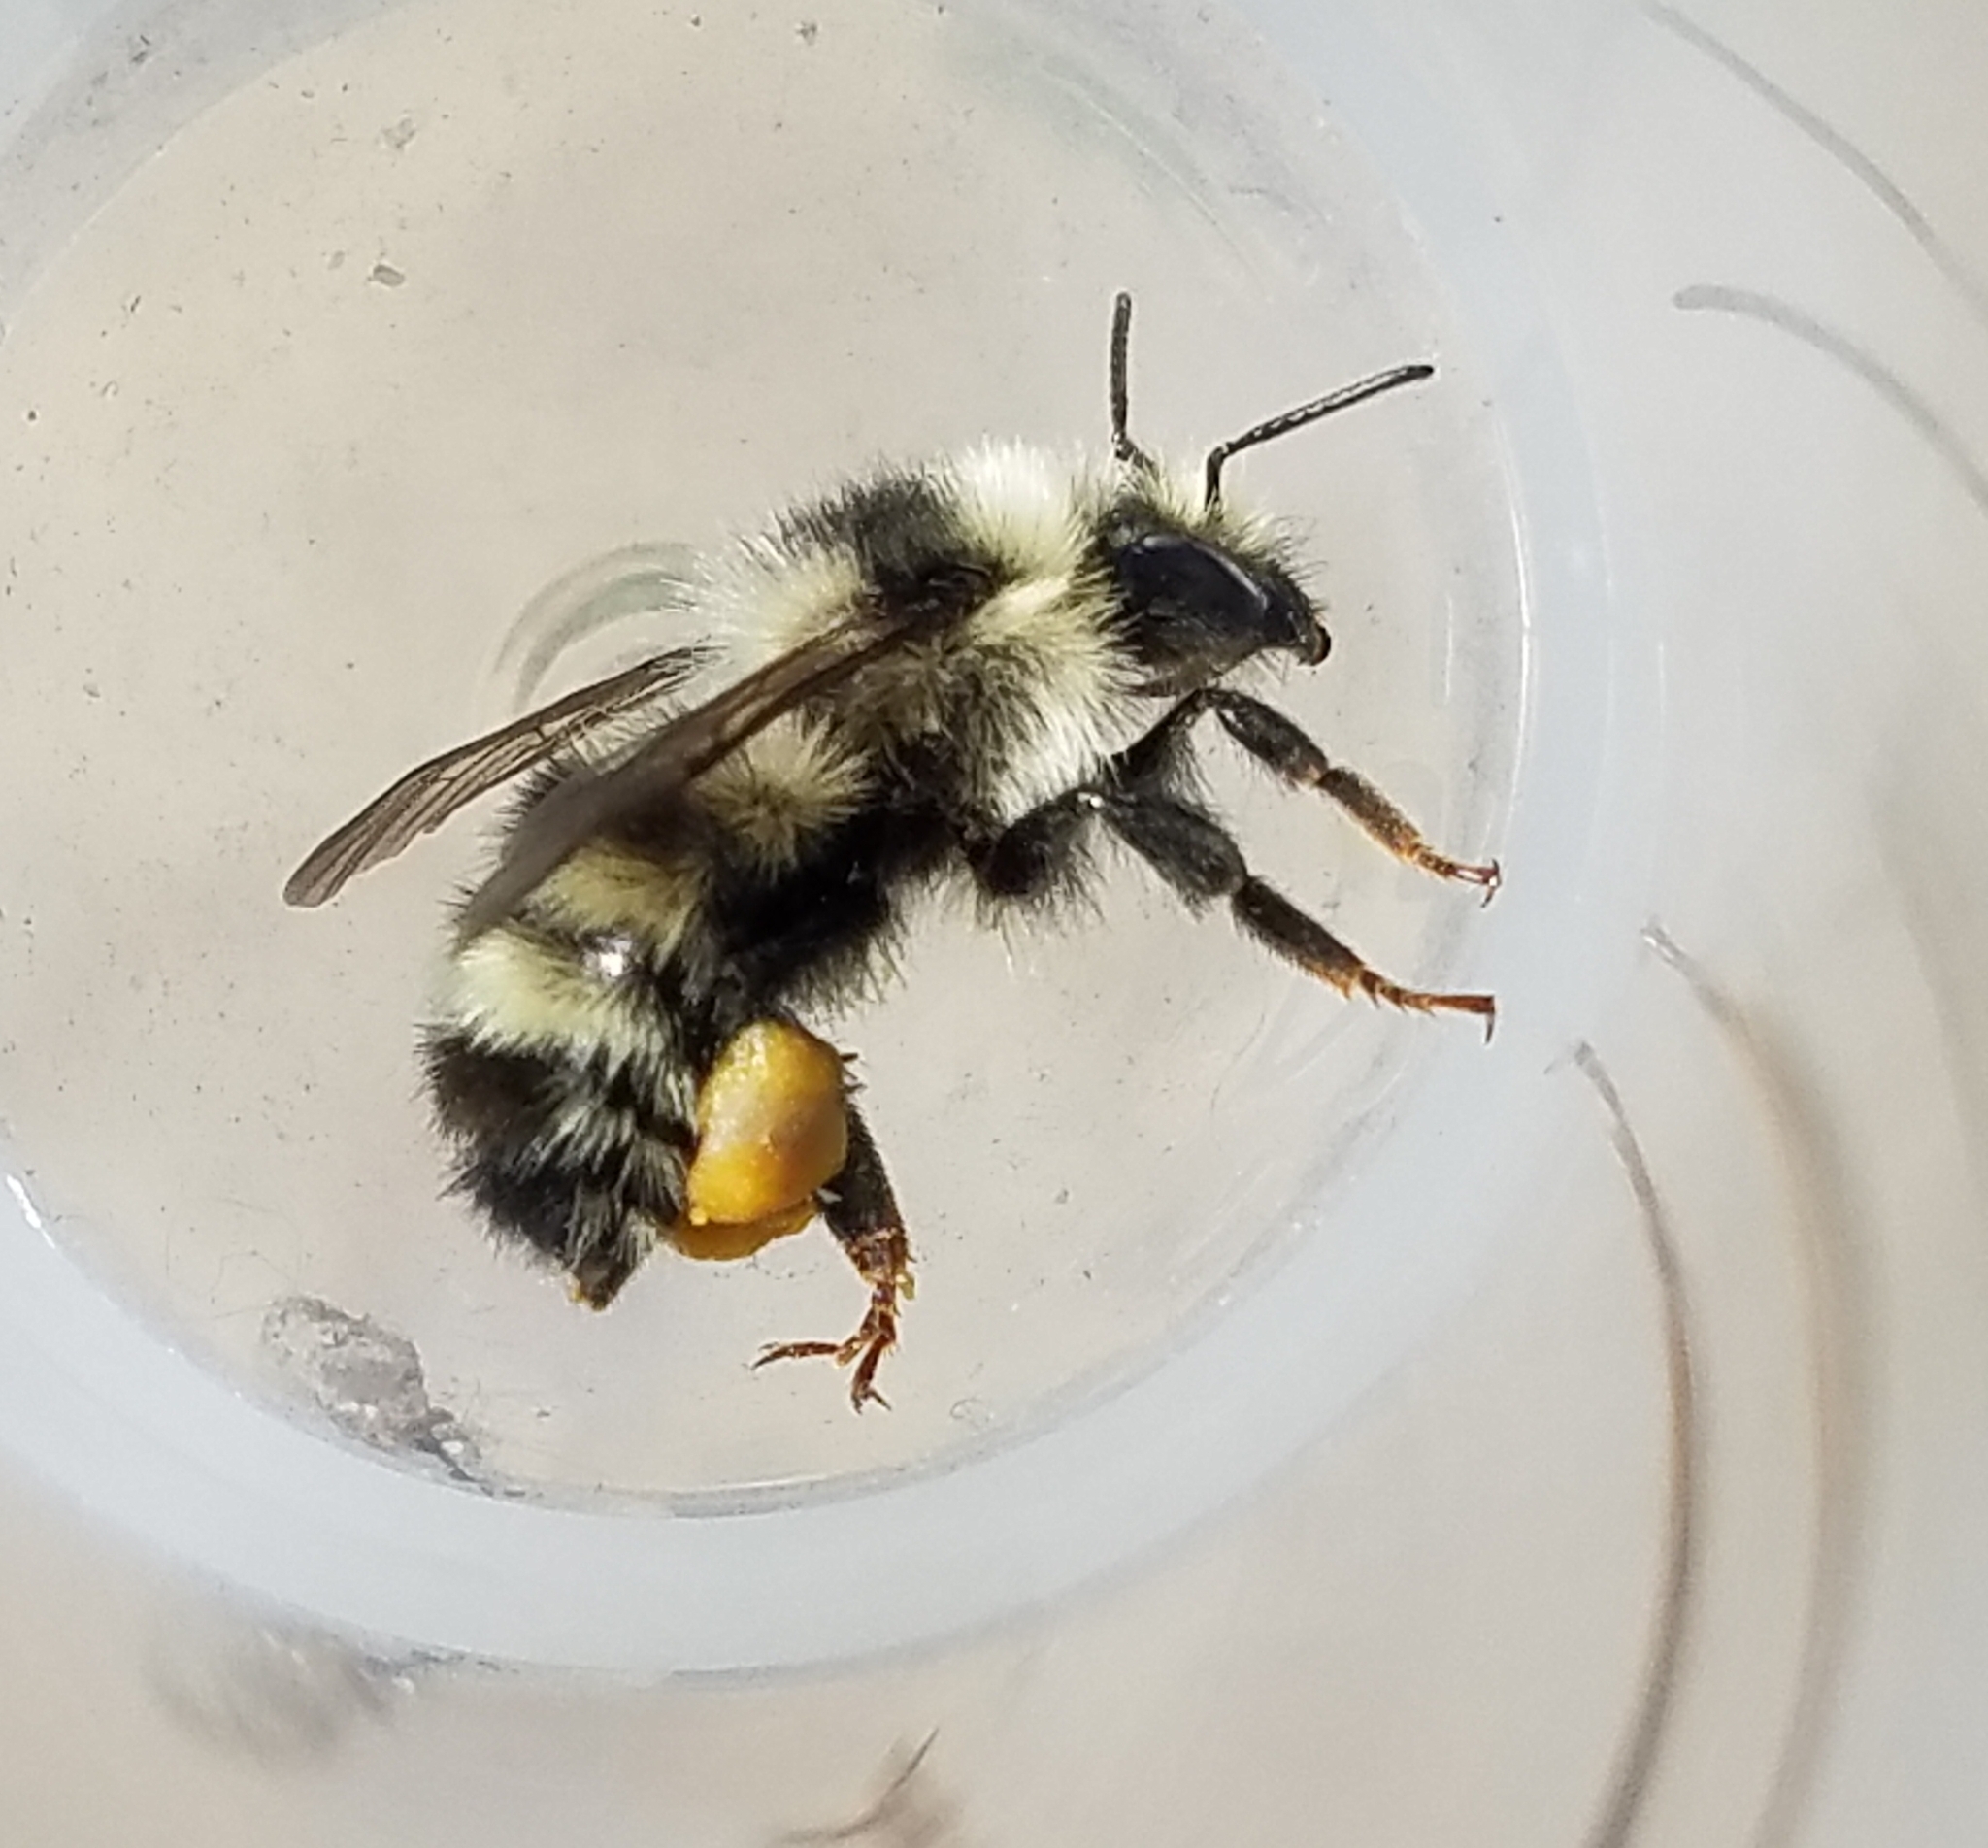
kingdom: Animalia
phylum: Arthropoda
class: Insecta
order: Hymenoptera
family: Apidae
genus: Bombus
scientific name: Bombus vandykei
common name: Van dyke bumble bee
